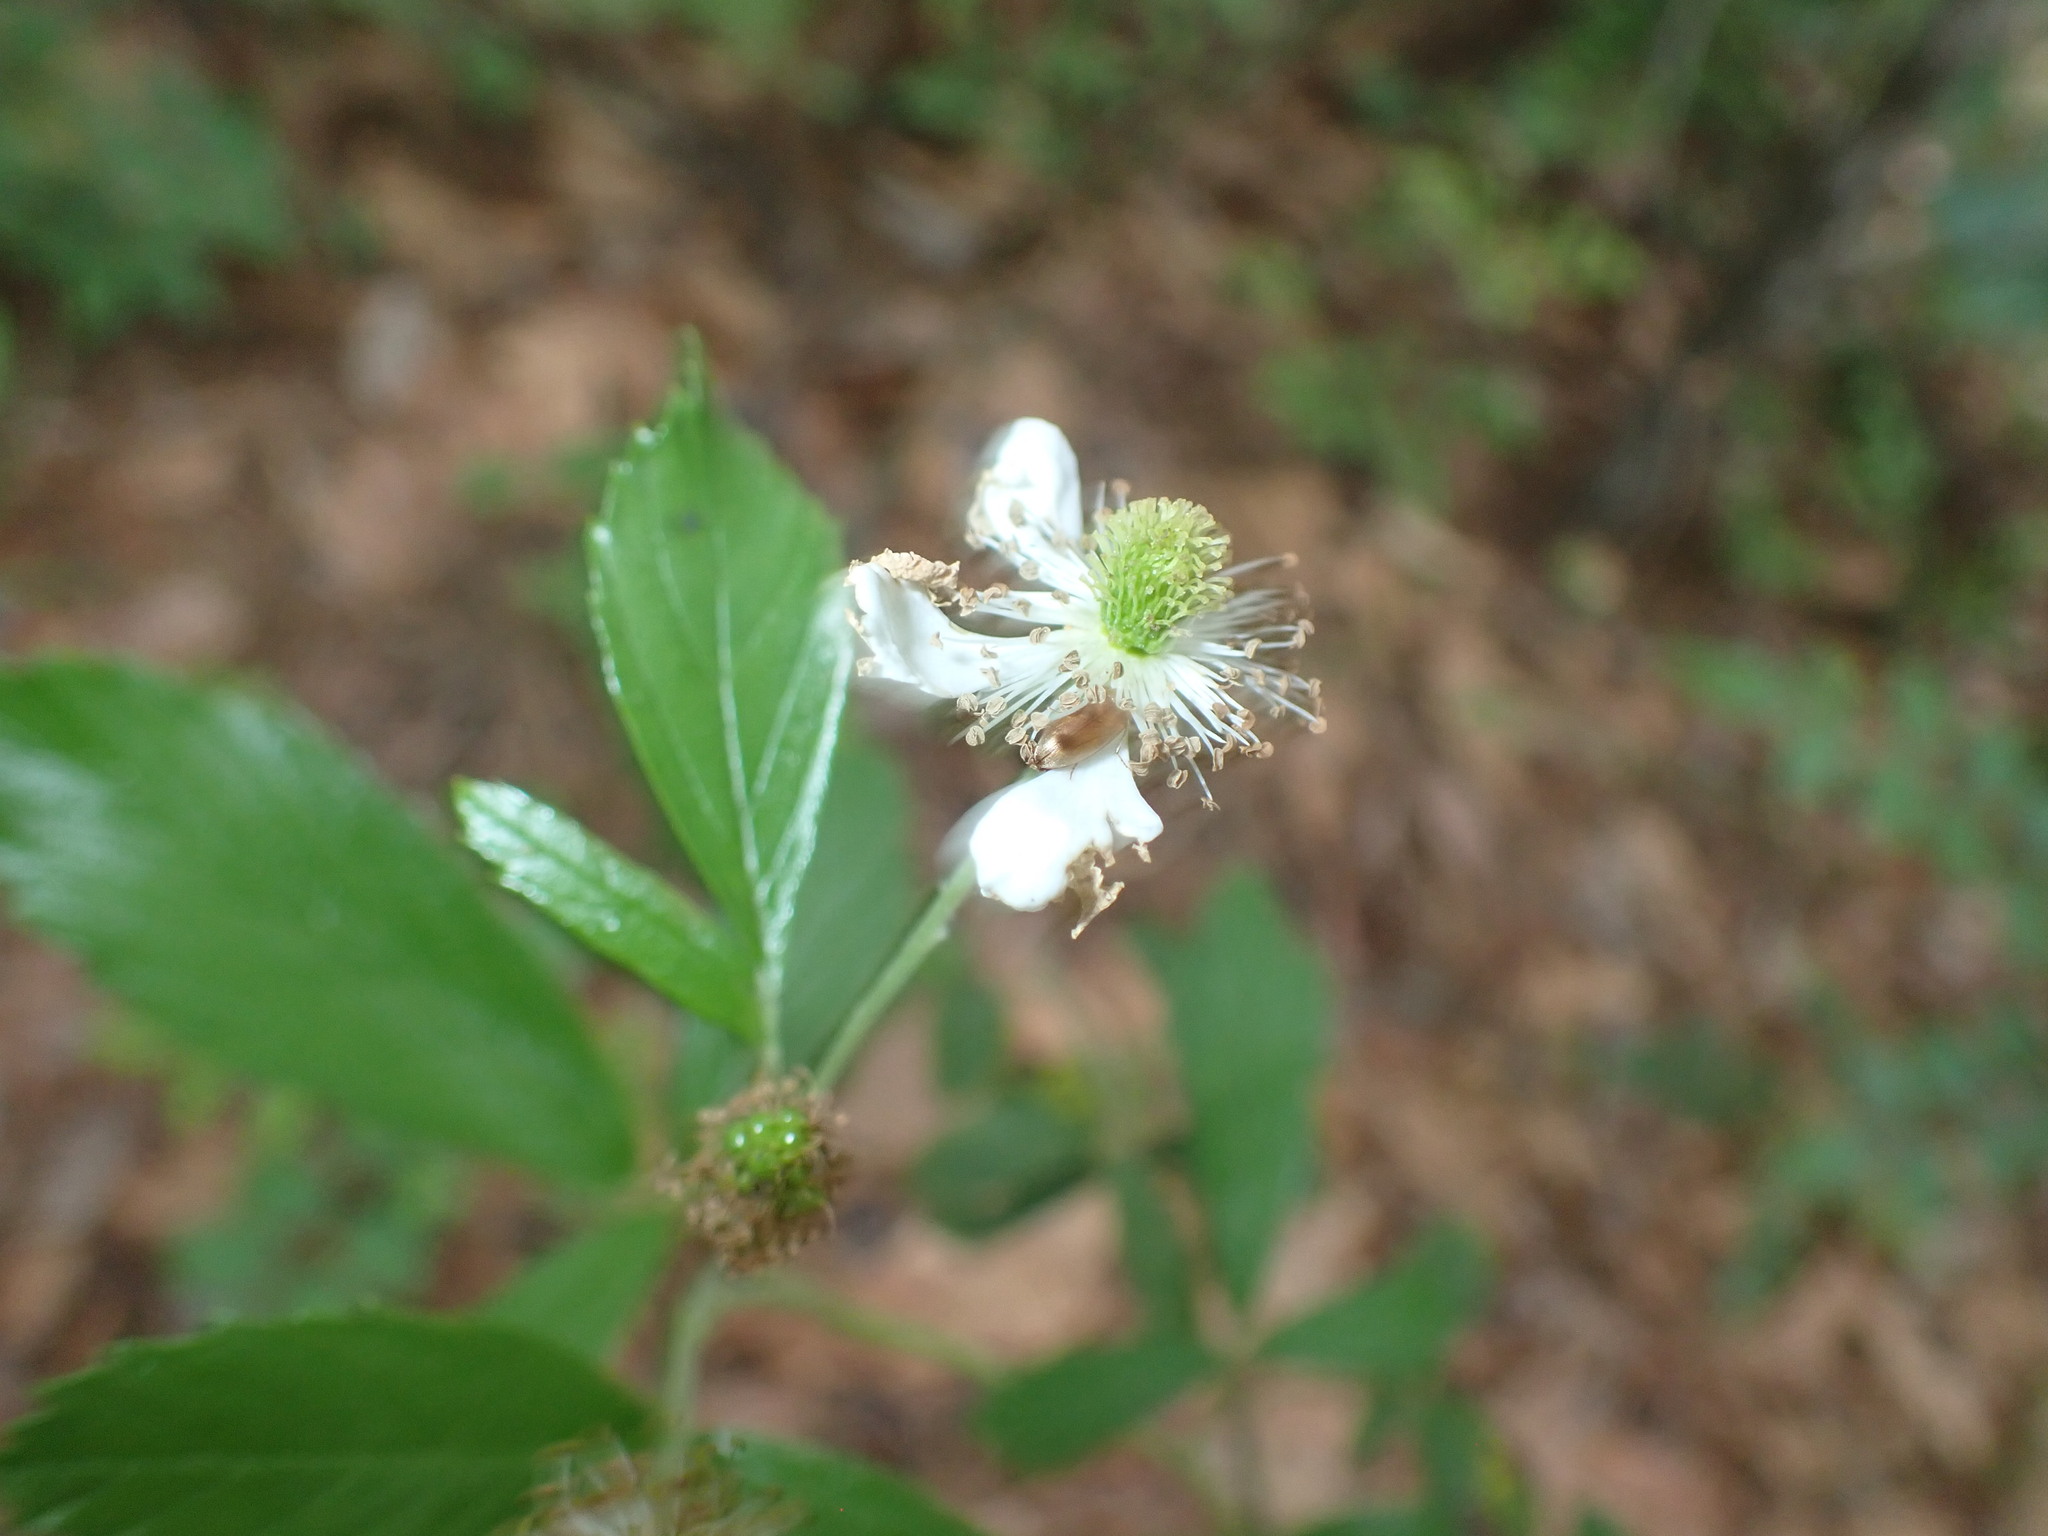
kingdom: Plantae
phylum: Tracheophyta
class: Magnoliopsida
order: Rosales
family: Rosaceae
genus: Rubus
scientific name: Rubus pensilvanicus
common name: Pennsylvania blackberry
